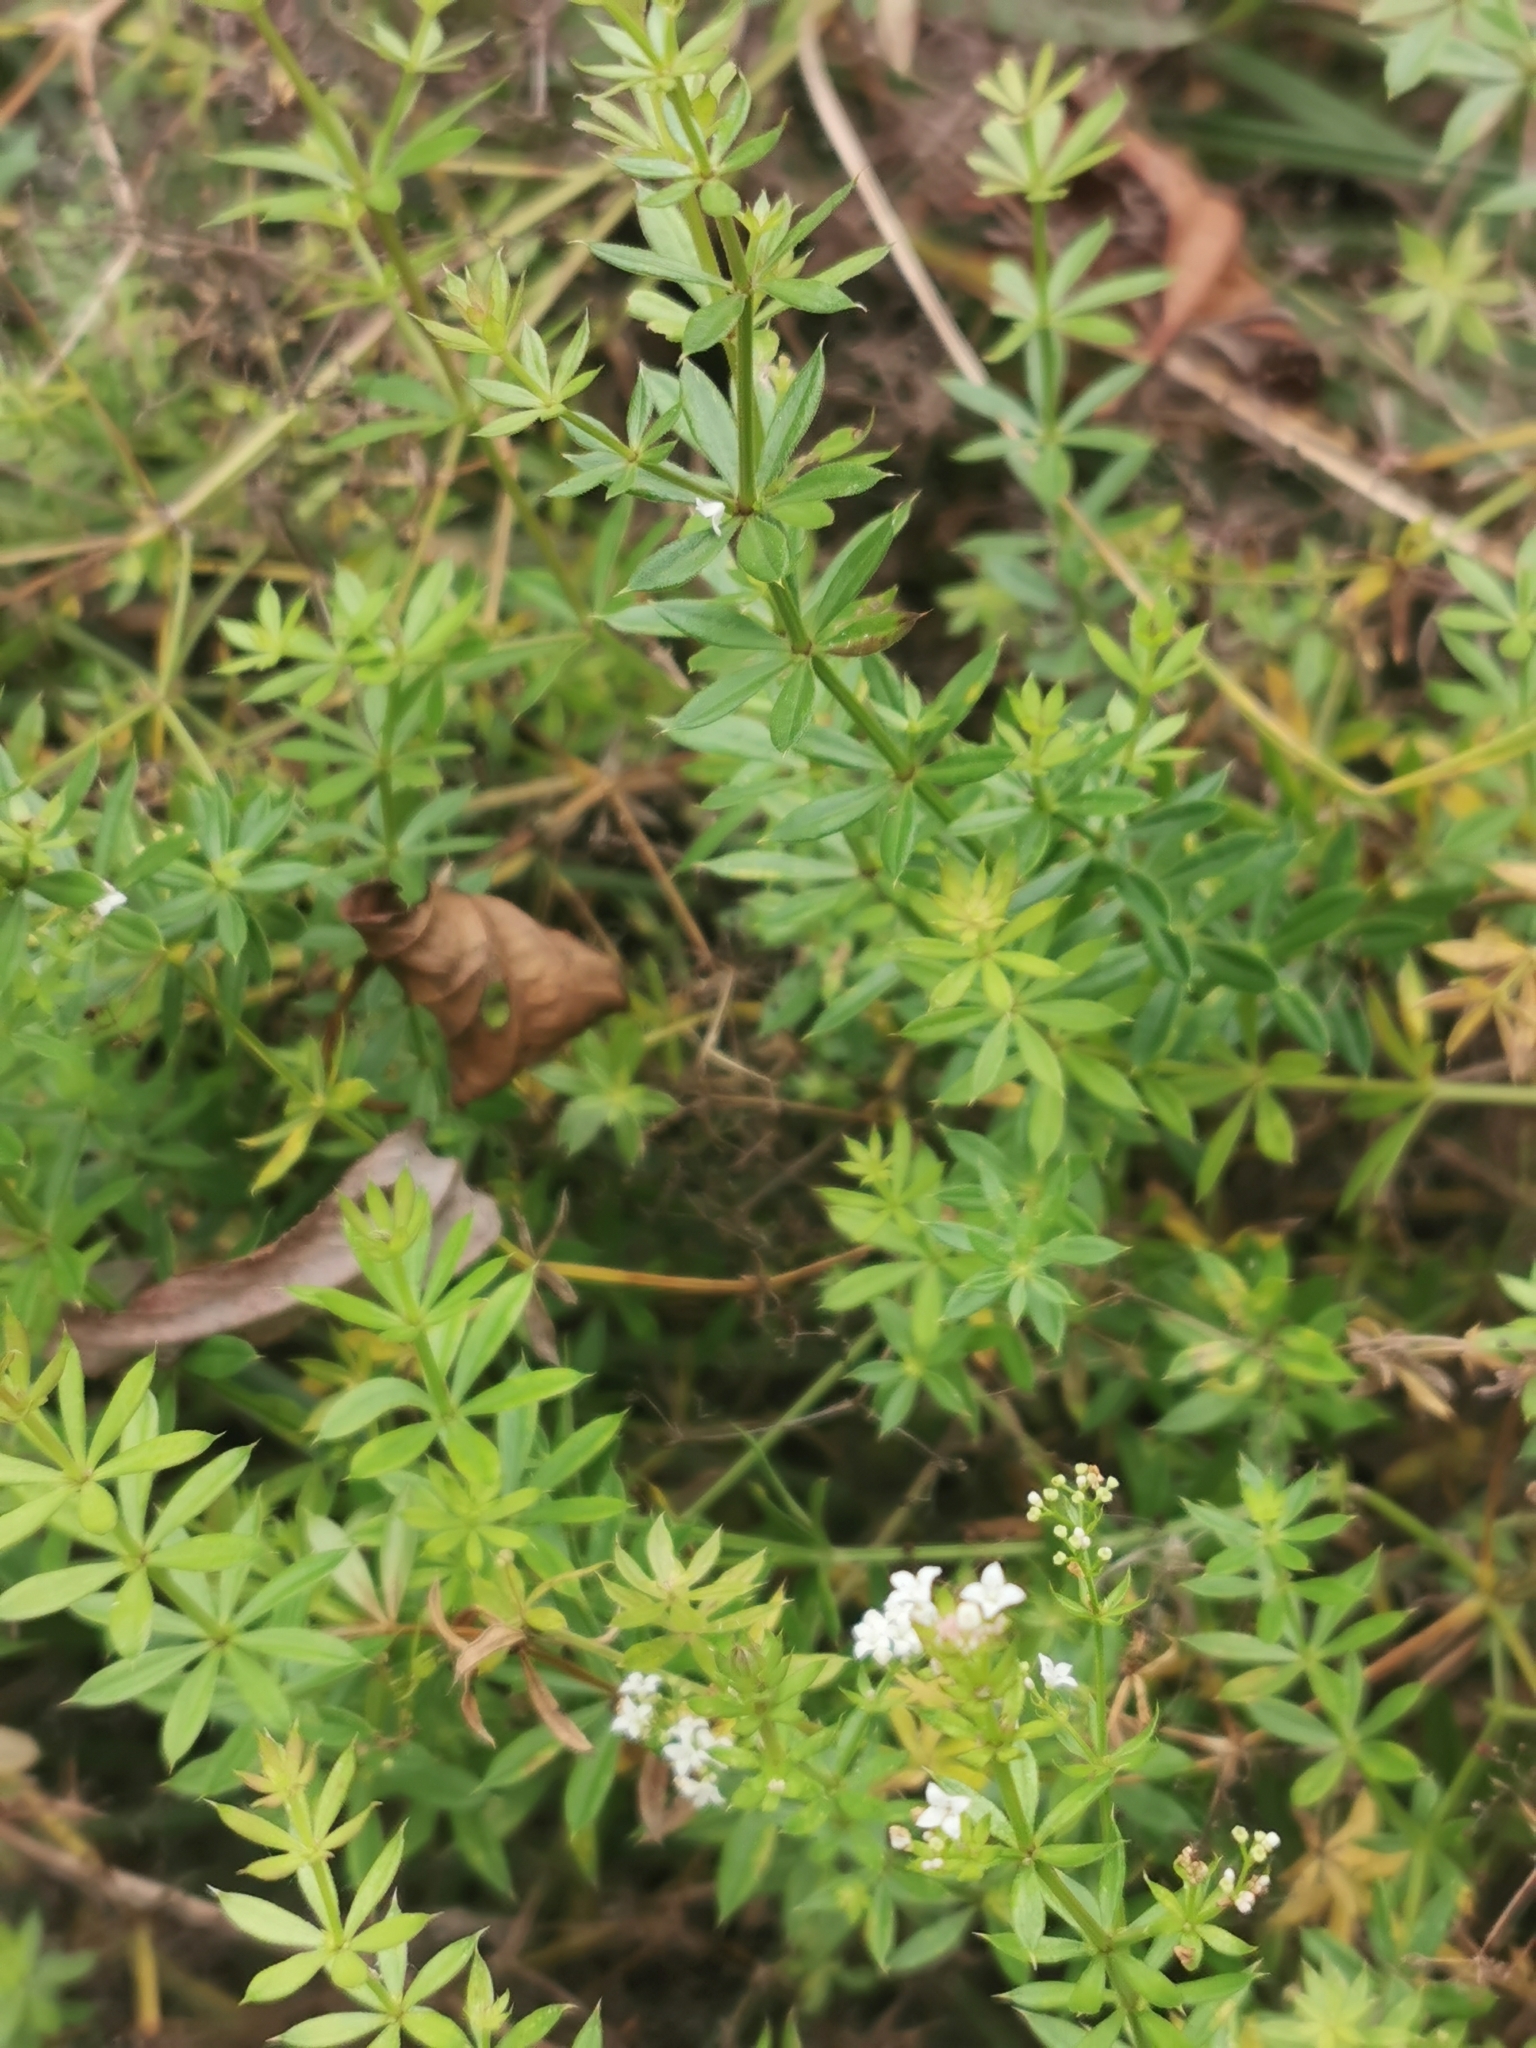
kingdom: Plantae
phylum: Tracheophyta
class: Magnoliopsida
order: Gentianales
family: Rubiaceae
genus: Galium
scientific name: Galium rivale
